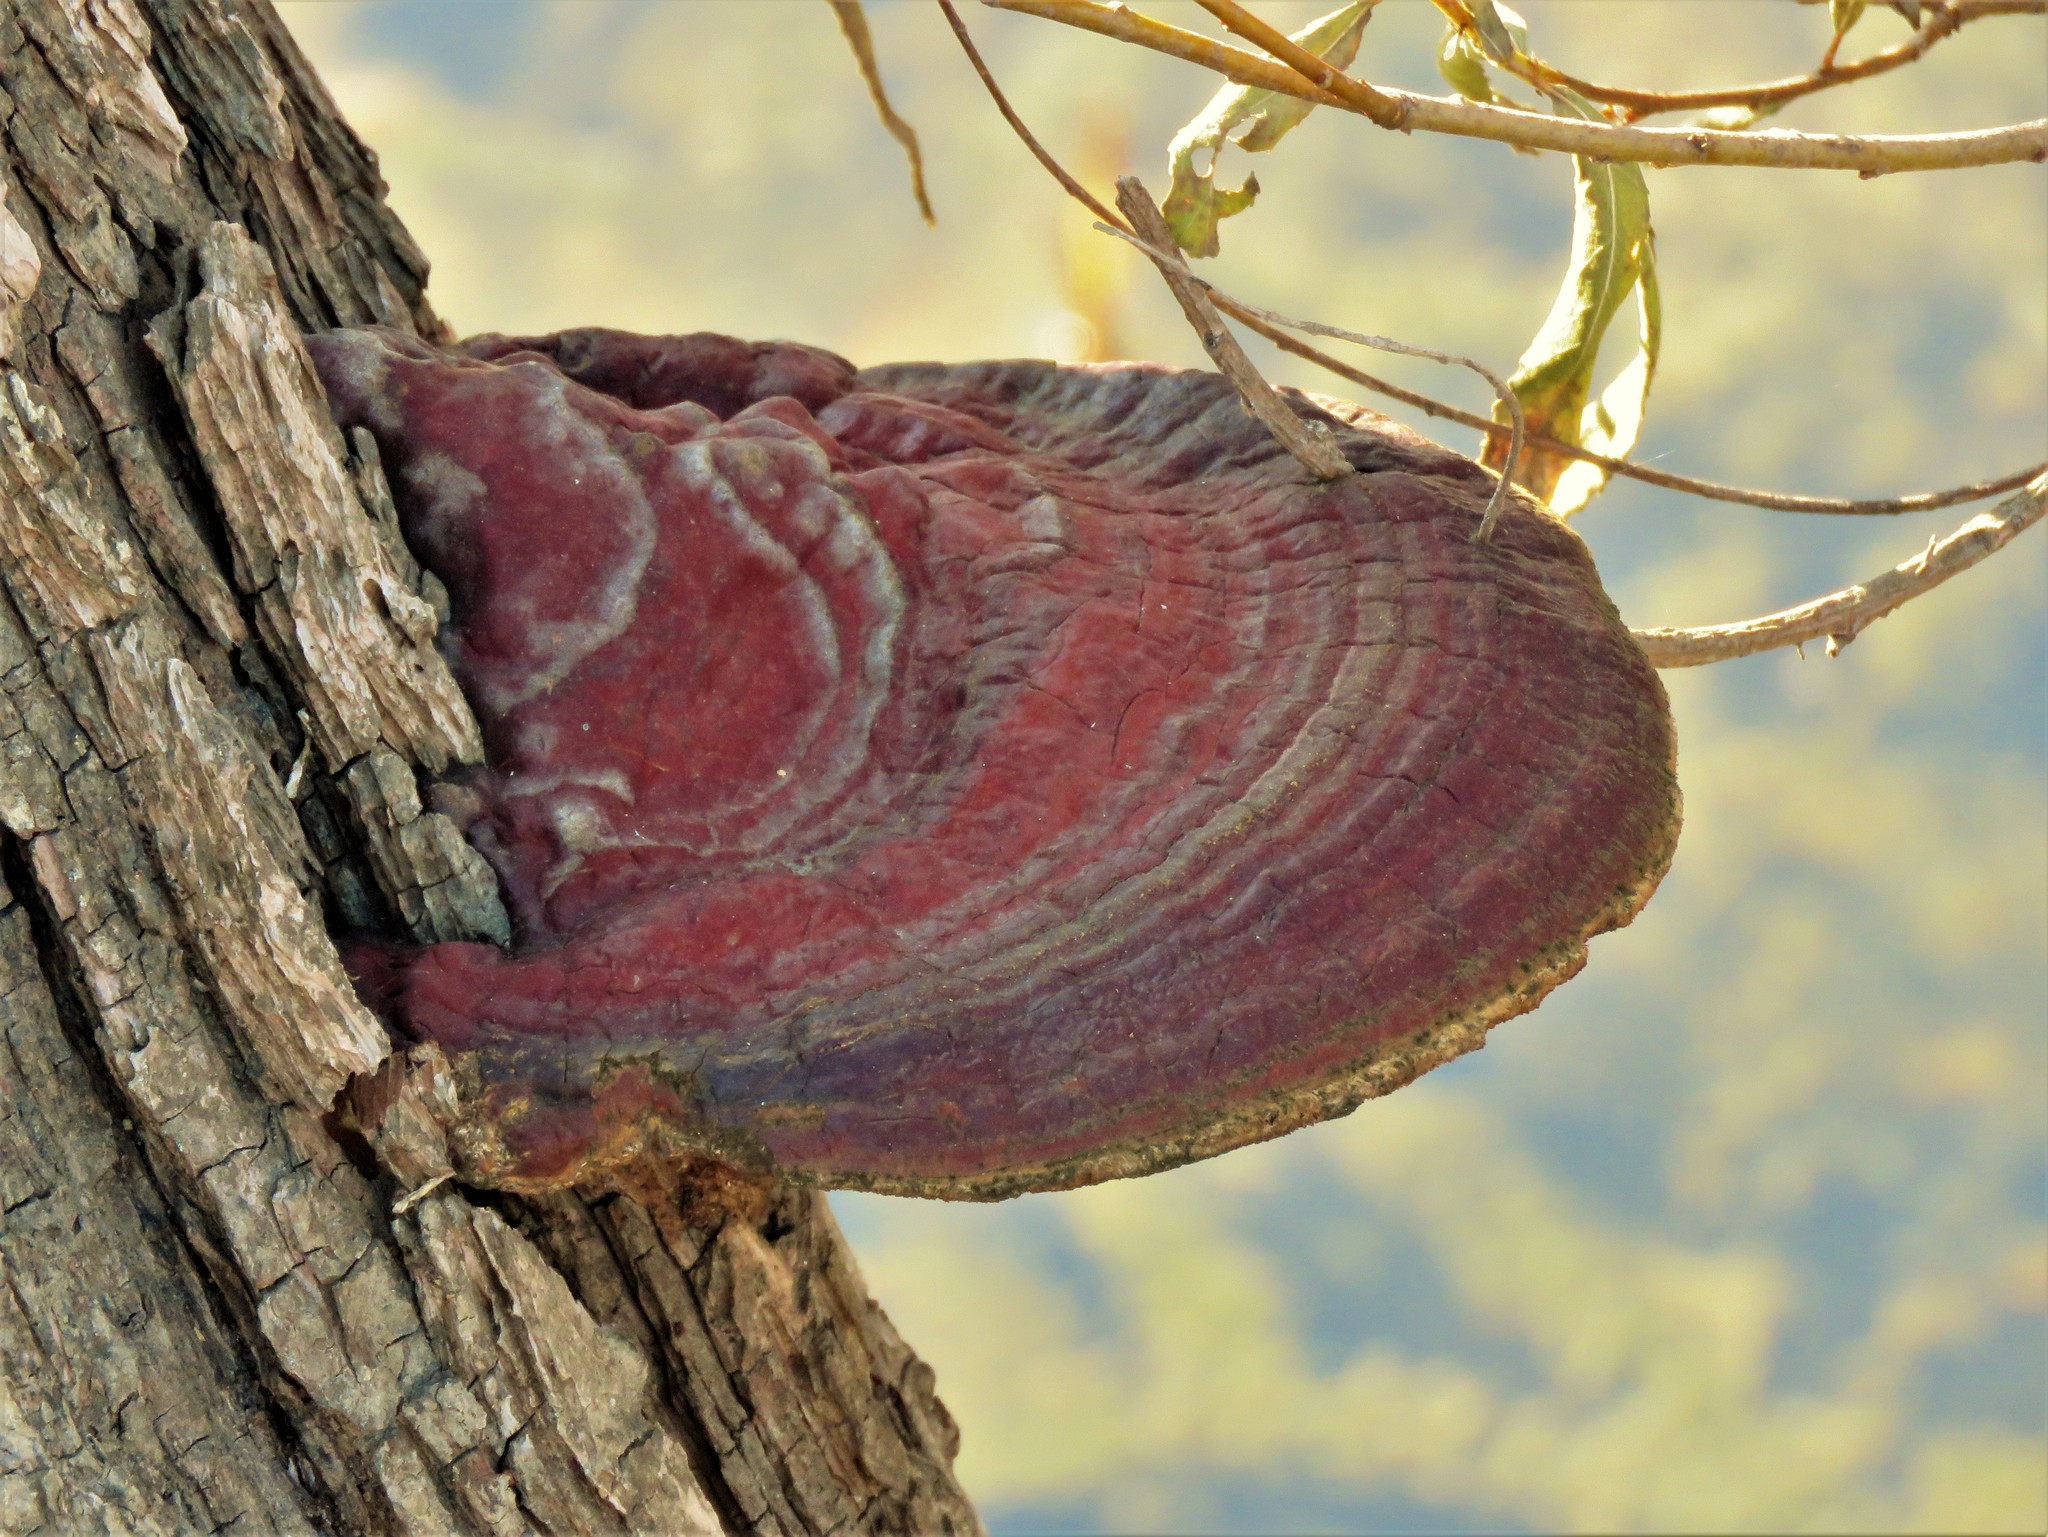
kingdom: Fungi
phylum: Basidiomycota
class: Agaricomycetes
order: Polyporales
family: Polyporaceae
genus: Ganoderma
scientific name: Ganoderma resinaceum
